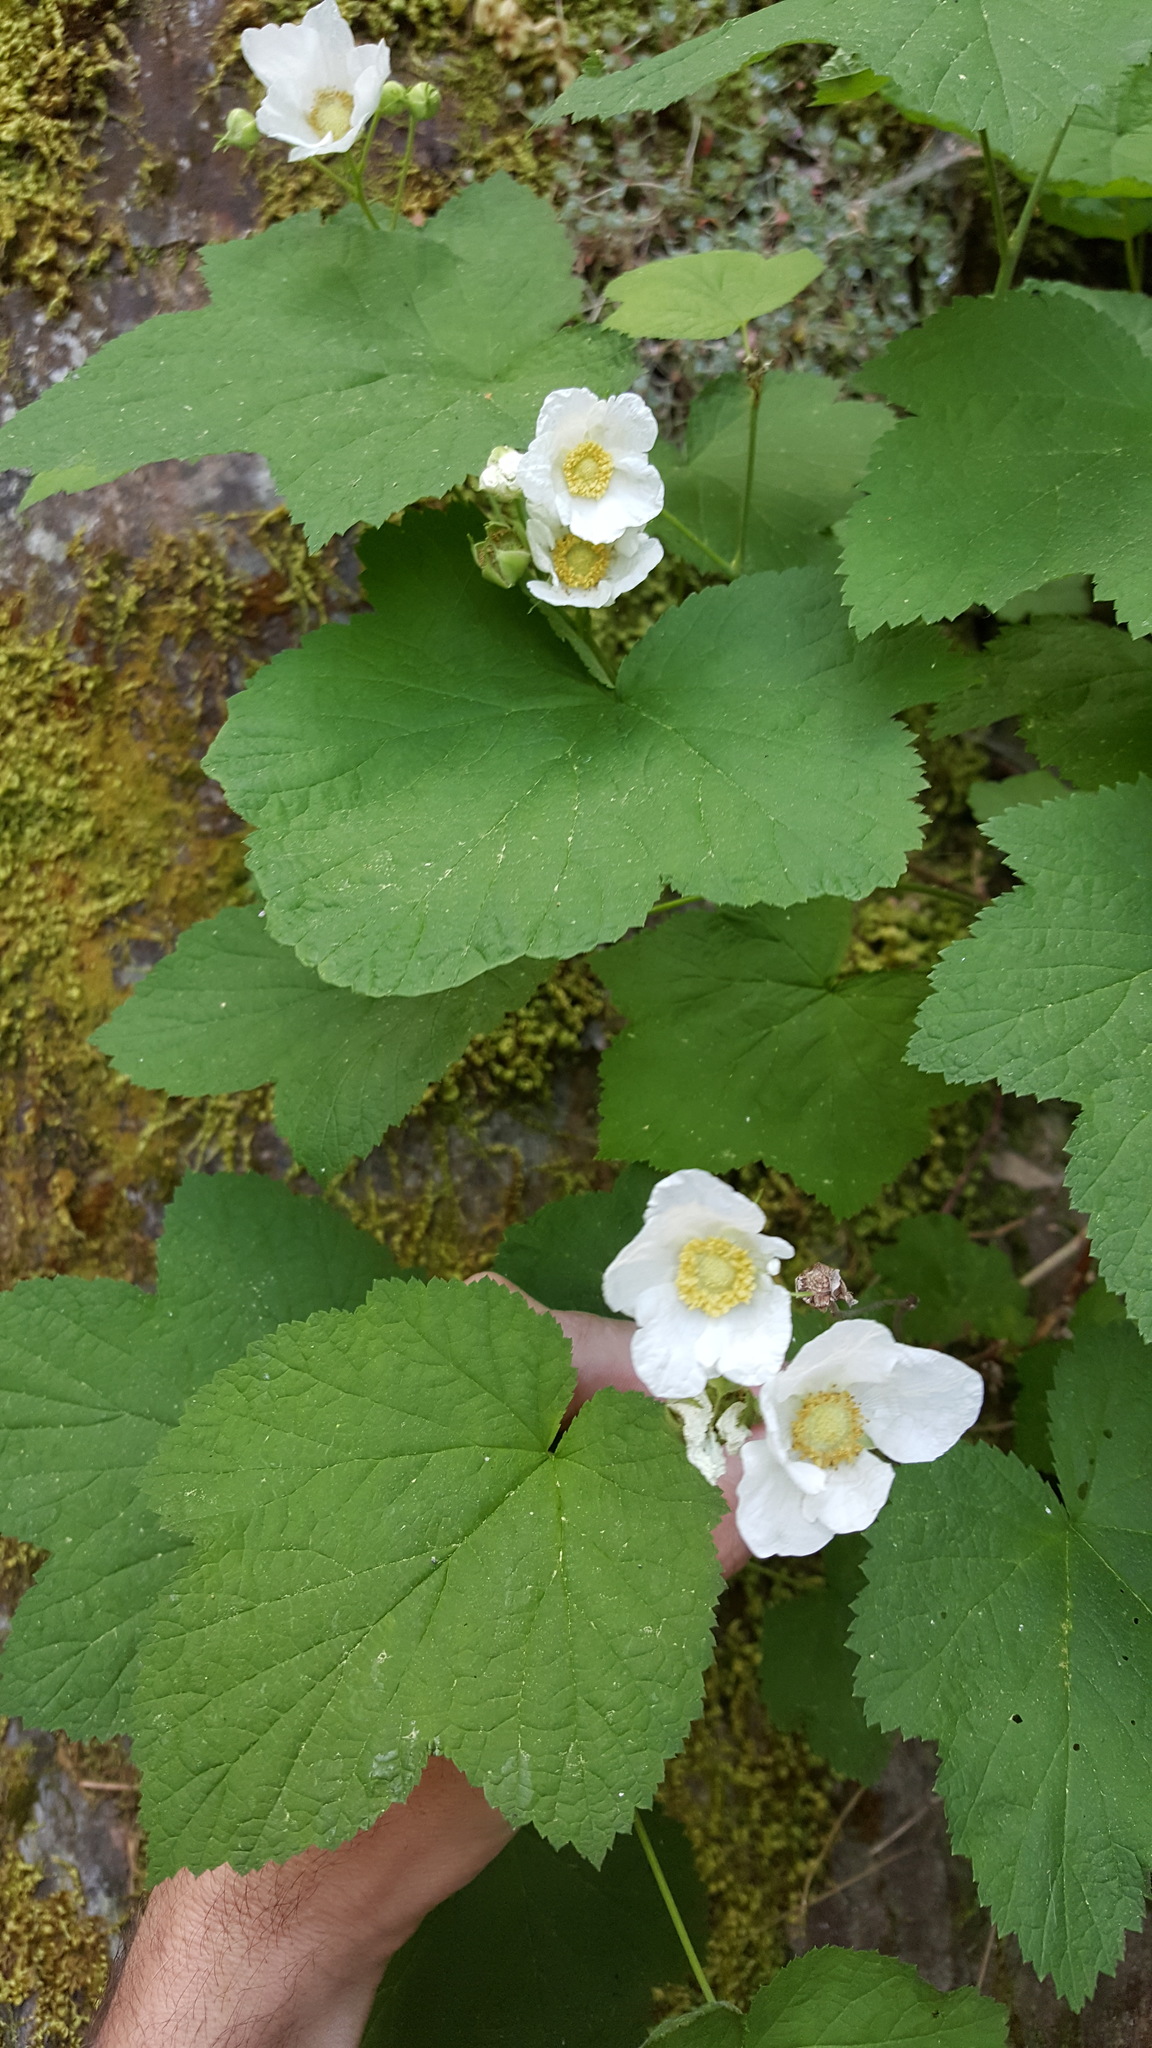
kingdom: Plantae
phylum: Tracheophyta
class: Magnoliopsida
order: Rosales
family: Rosaceae
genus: Rubus
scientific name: Rubus parviflorus
